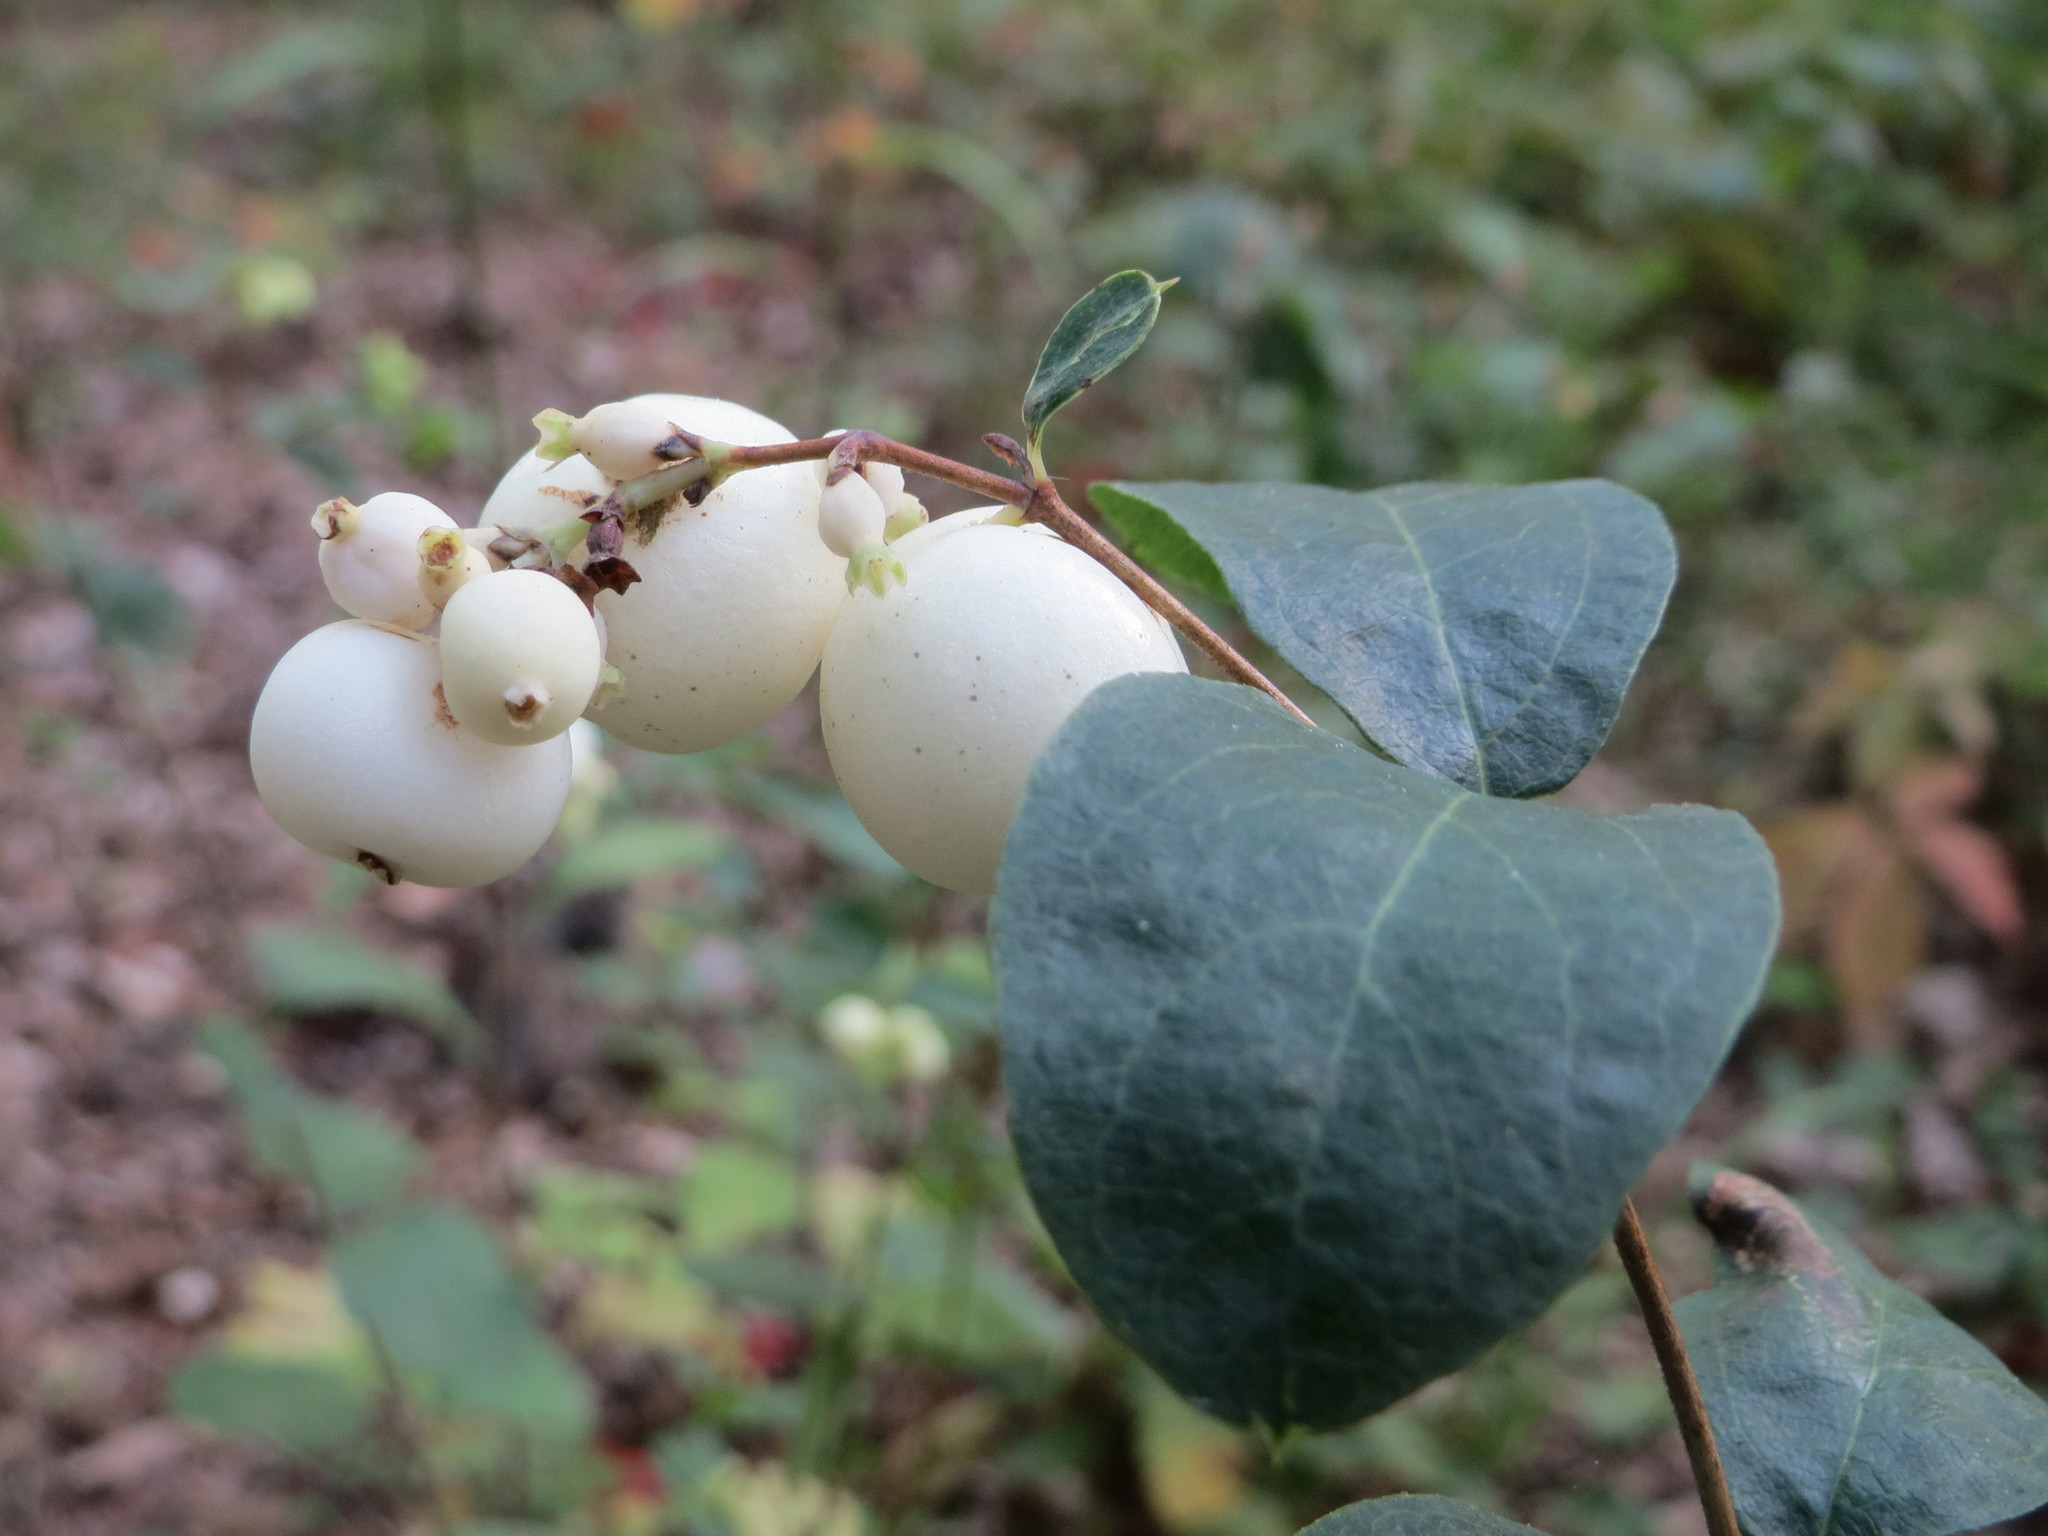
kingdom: Plantae
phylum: Tracheophyta
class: Magnoliopsida
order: Dipsacales
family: Caprifoliaceae
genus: Symphoricarpos
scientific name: Symphoricarpos albus
